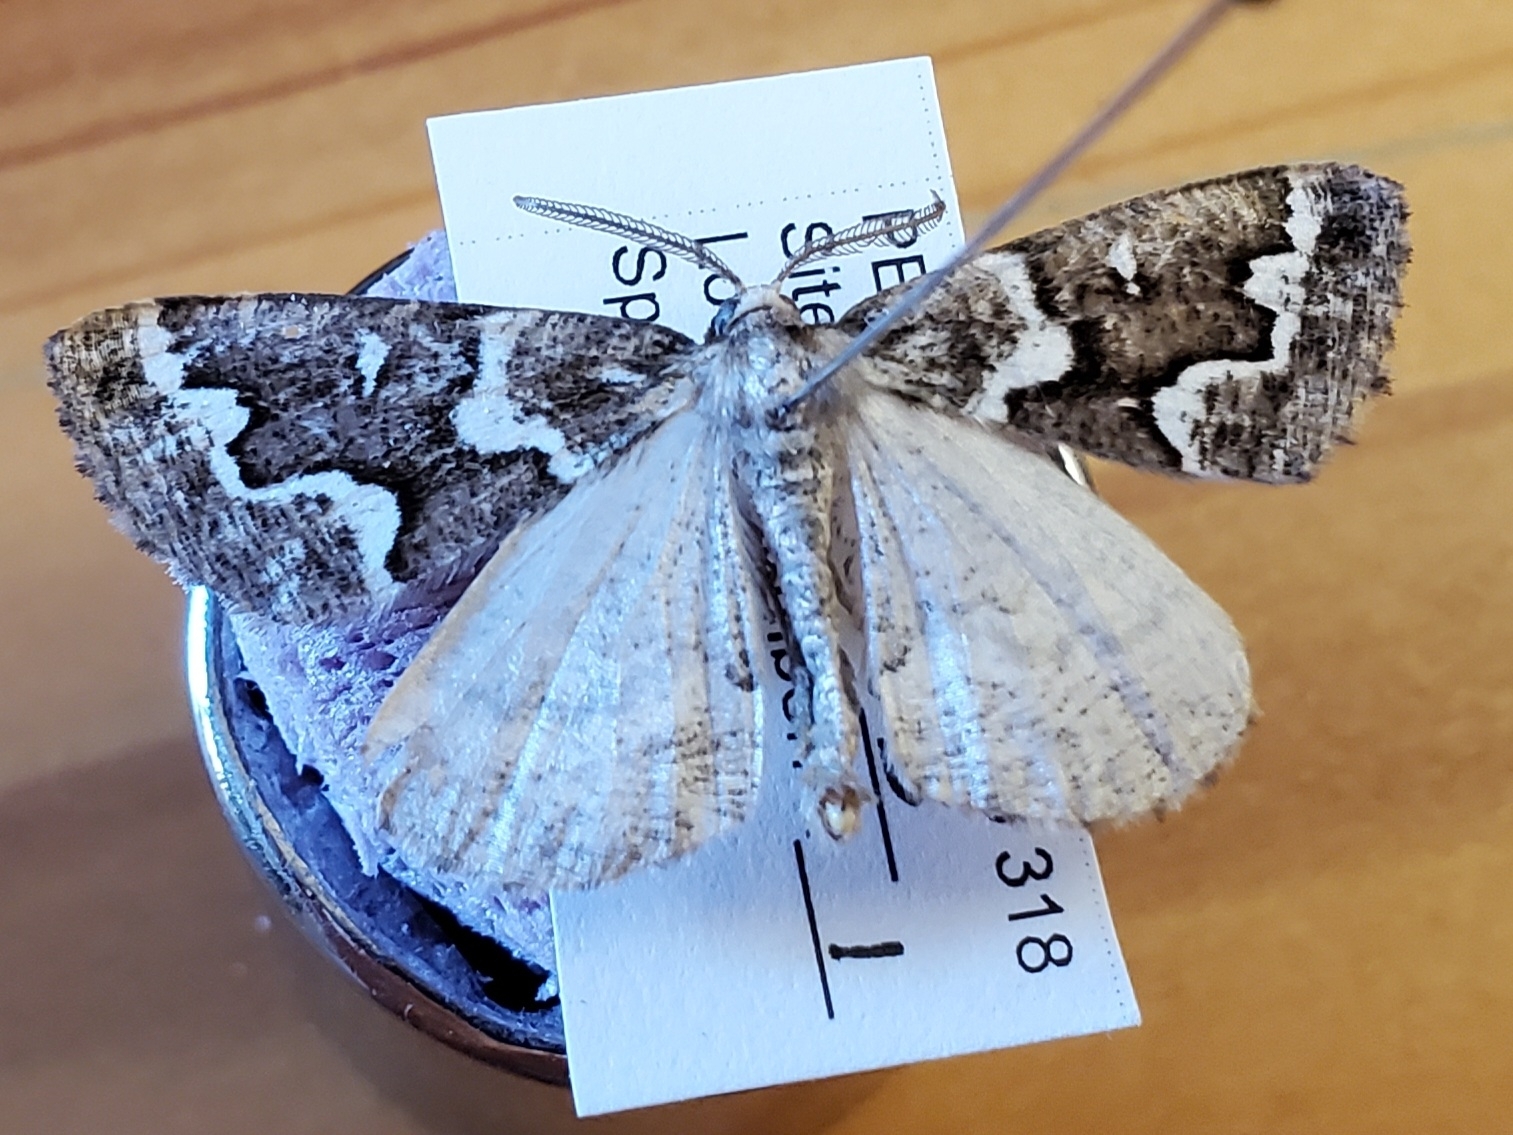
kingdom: Animalia
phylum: Arthropoda
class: Insecta
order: Lepidoptera
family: Geometridae
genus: Caripeta
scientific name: Caripeta divisata
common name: Gray spruce looper
